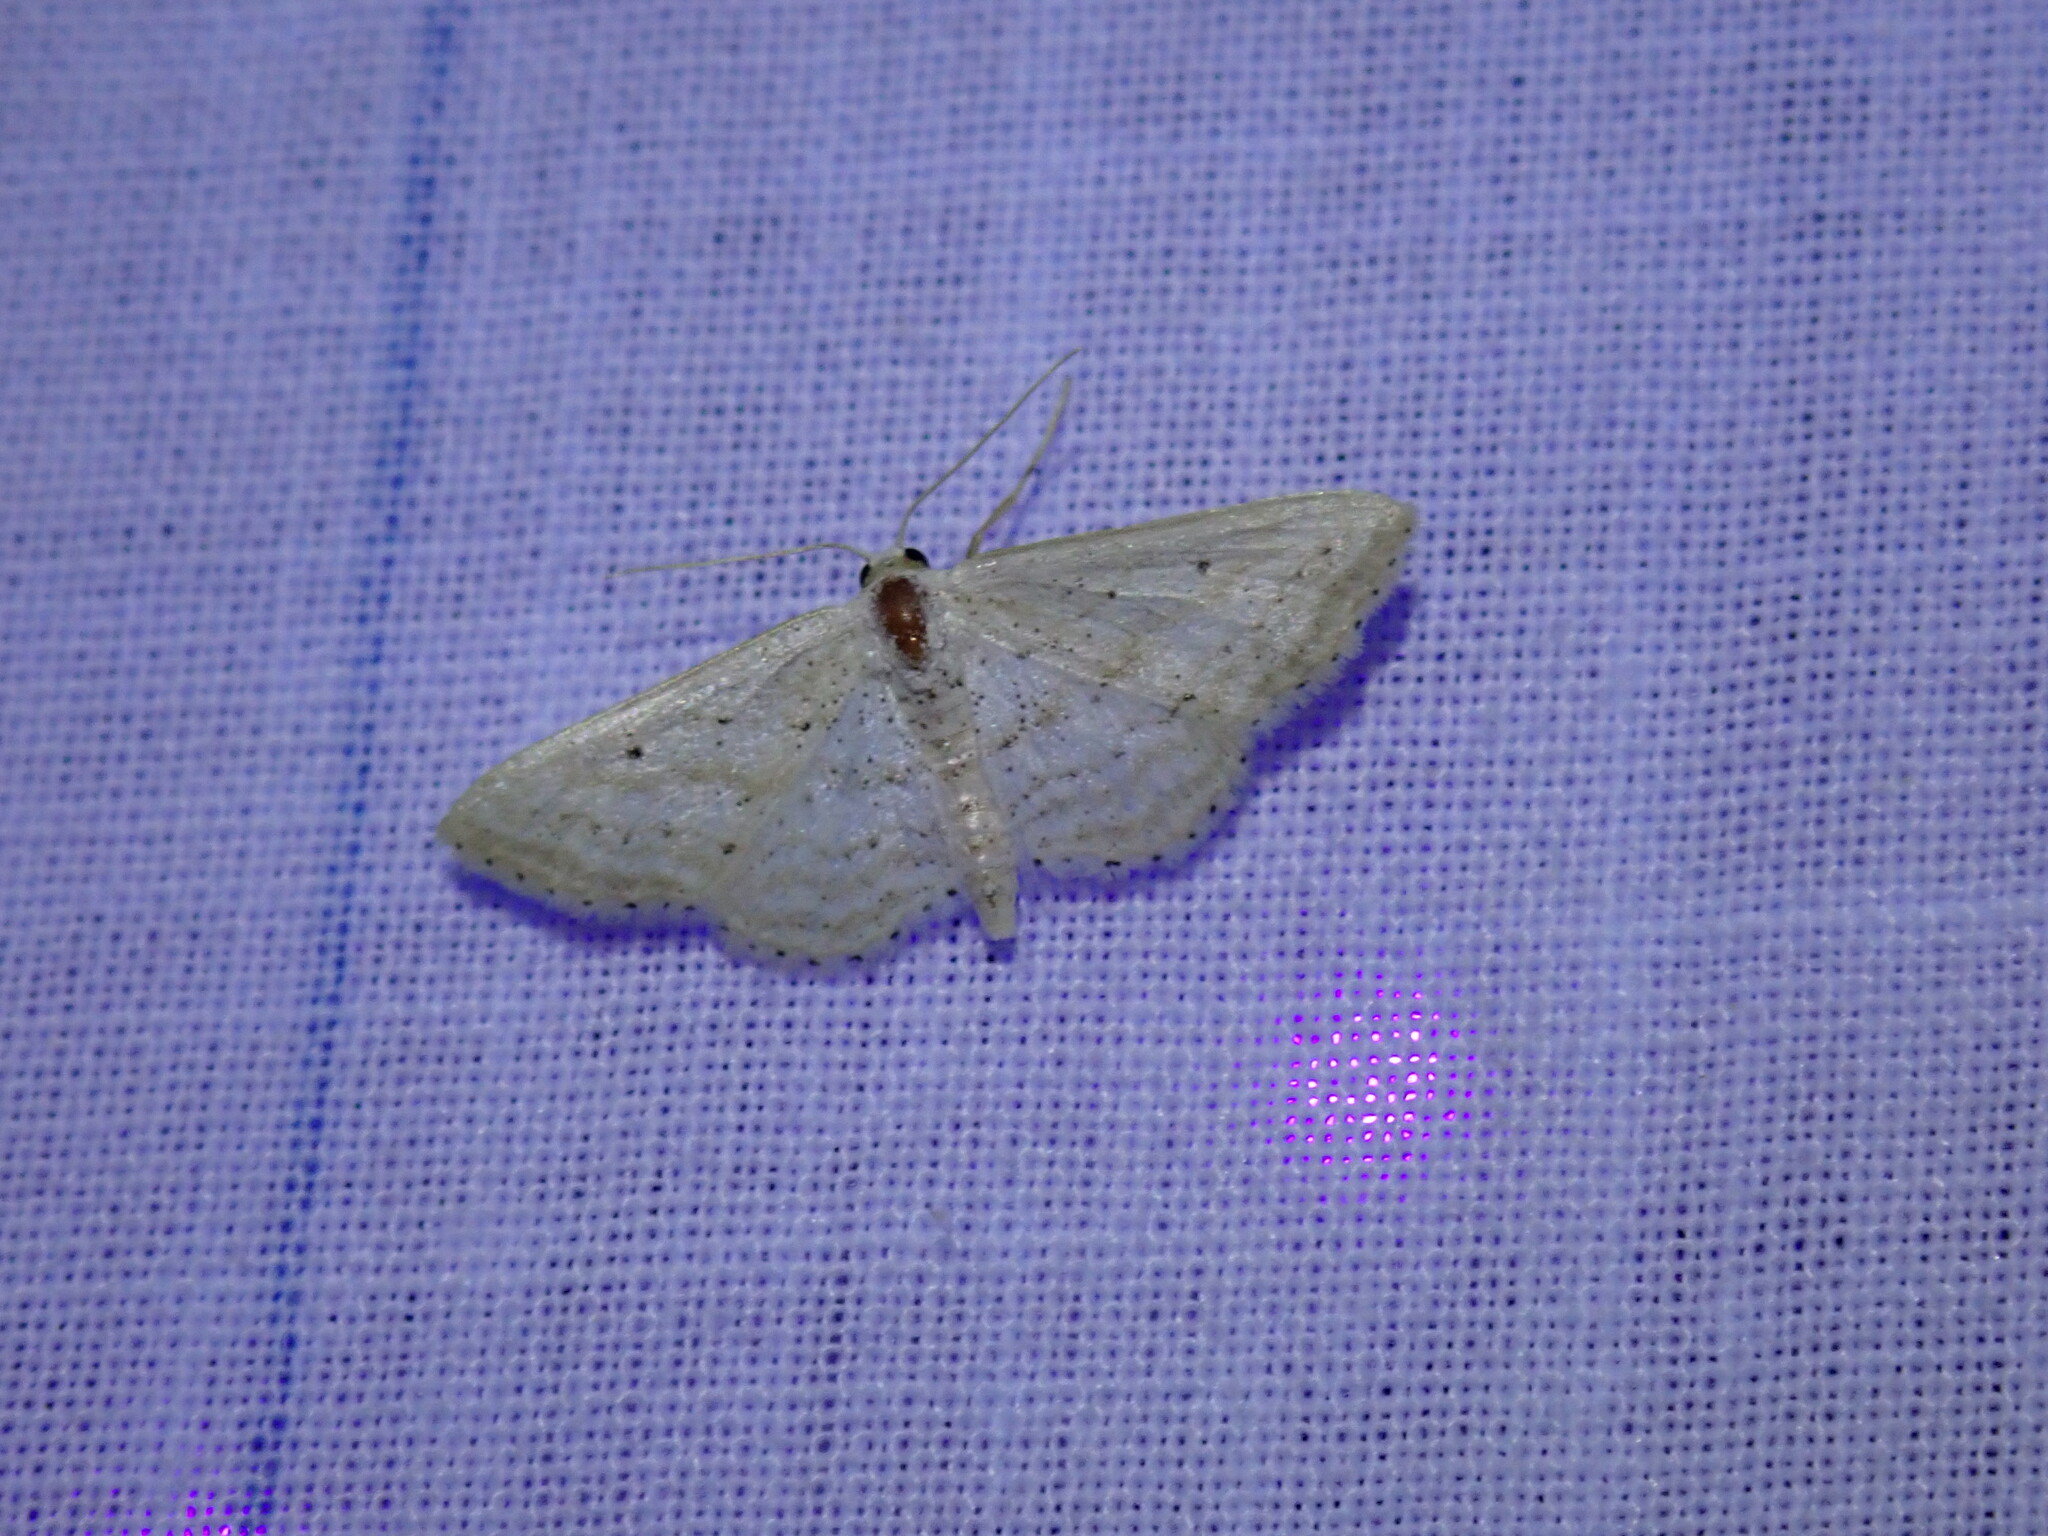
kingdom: Animalia
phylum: Arthropoda
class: Insecta
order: Lepidoptera
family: Geometridae
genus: Idaea
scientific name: Idaea elongaria
